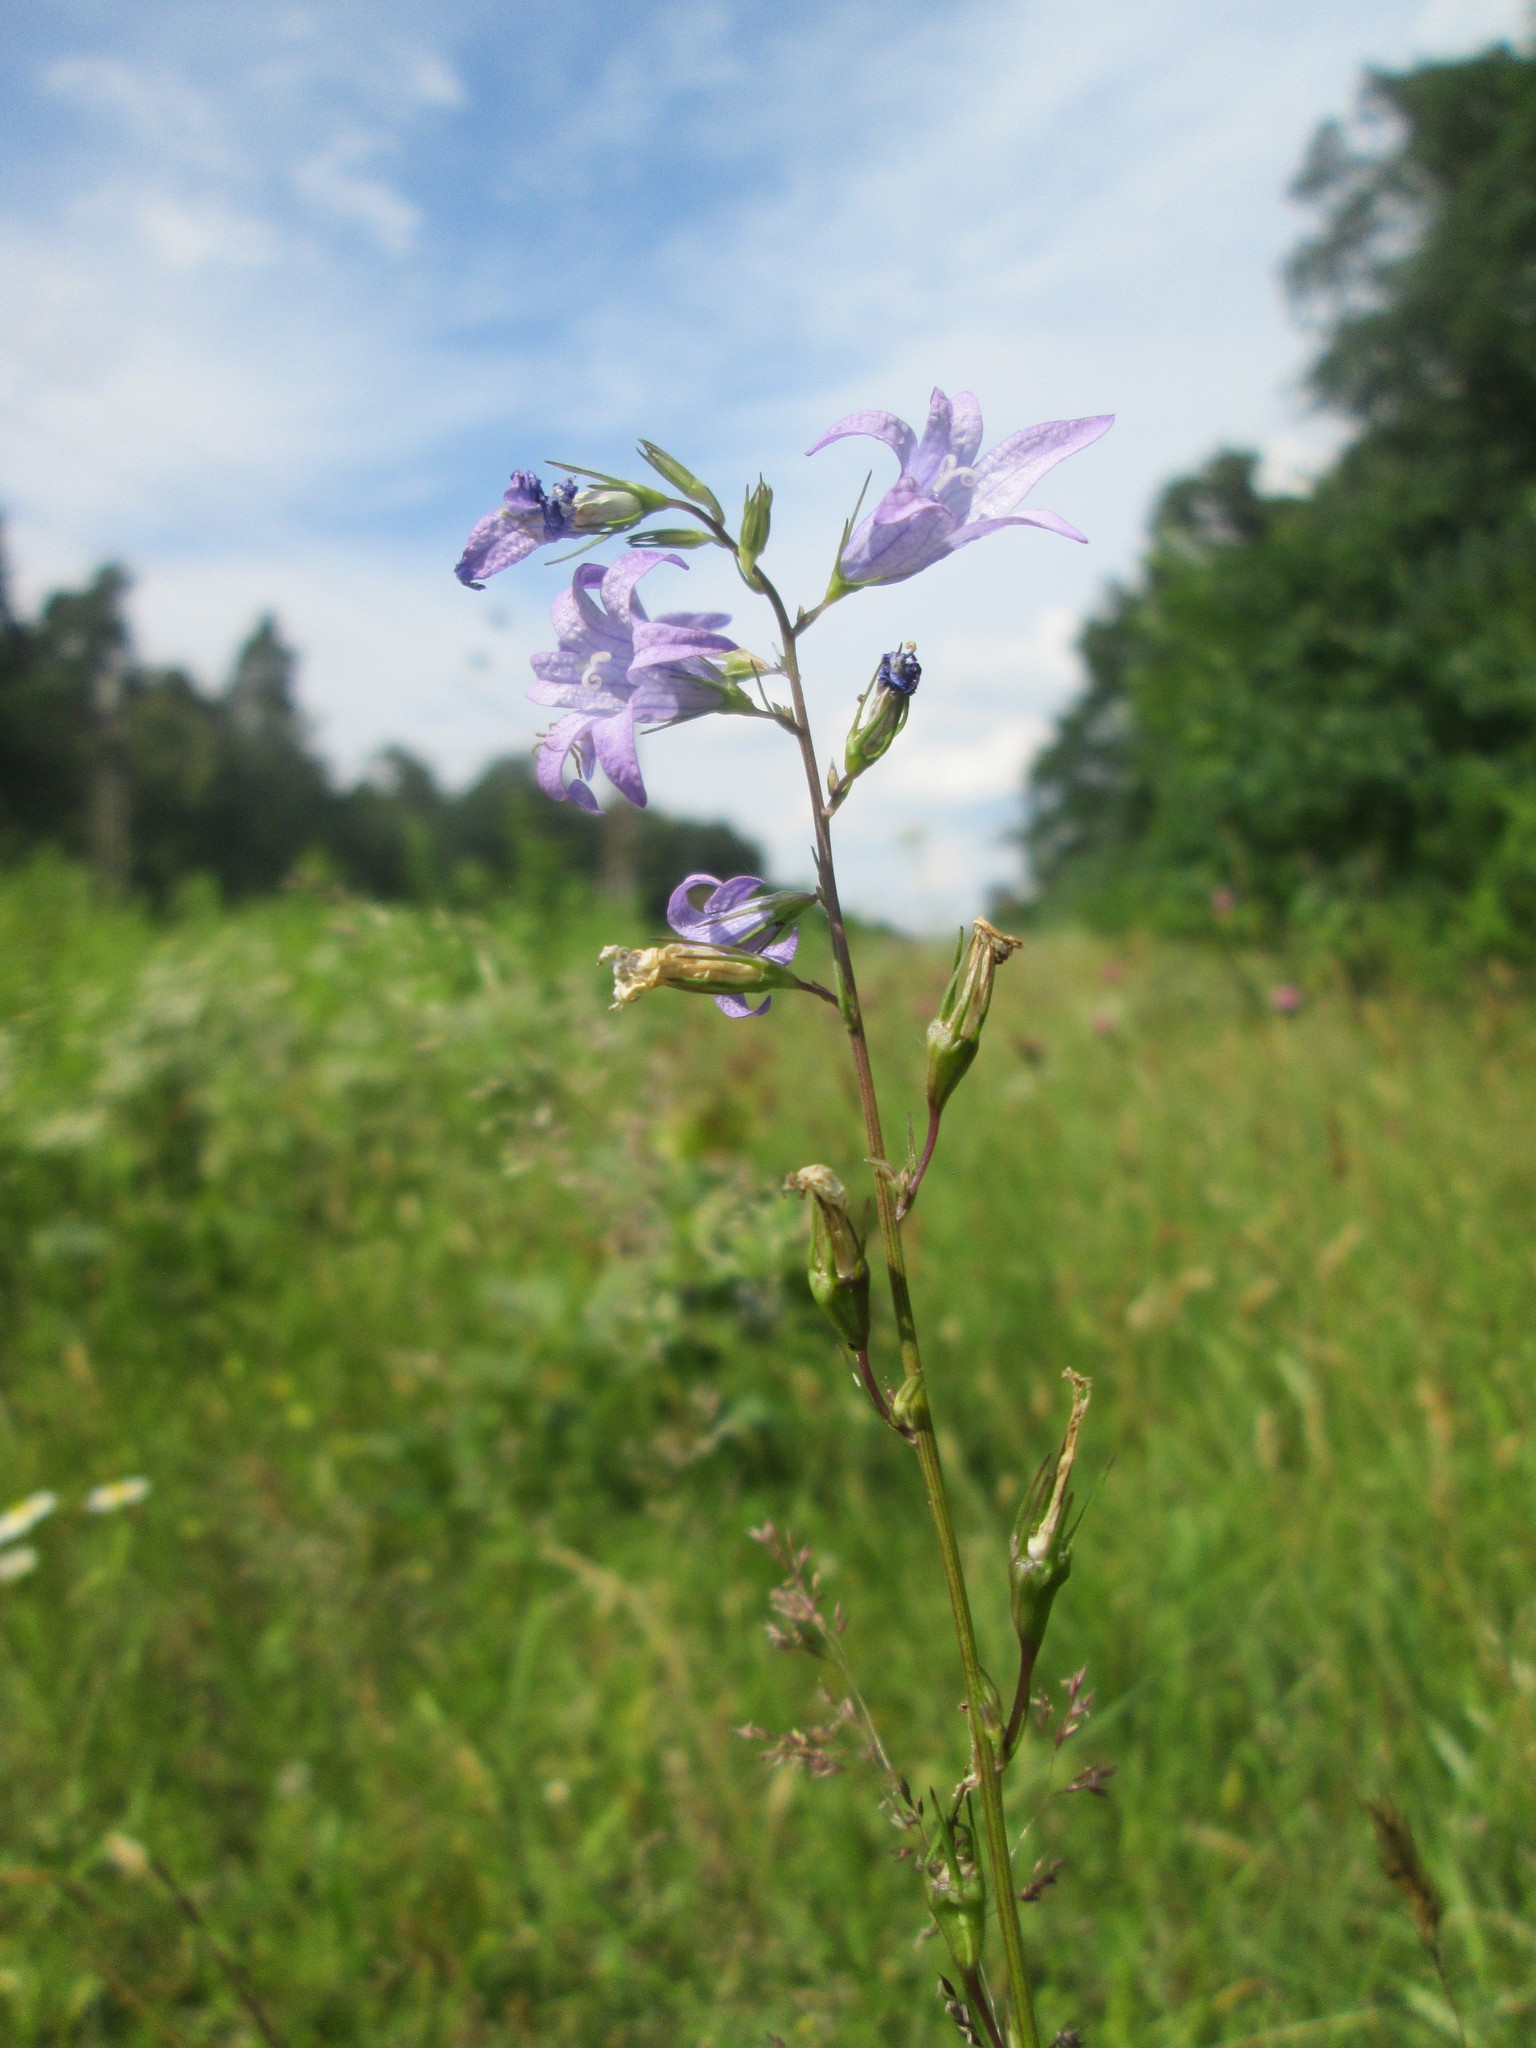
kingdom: Plantae
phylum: Tracheophyta
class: Magnoliopsida
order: Asterales
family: Campanulaceae
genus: Campanula
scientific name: Campanula rapunculus
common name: Rampion bellflower
